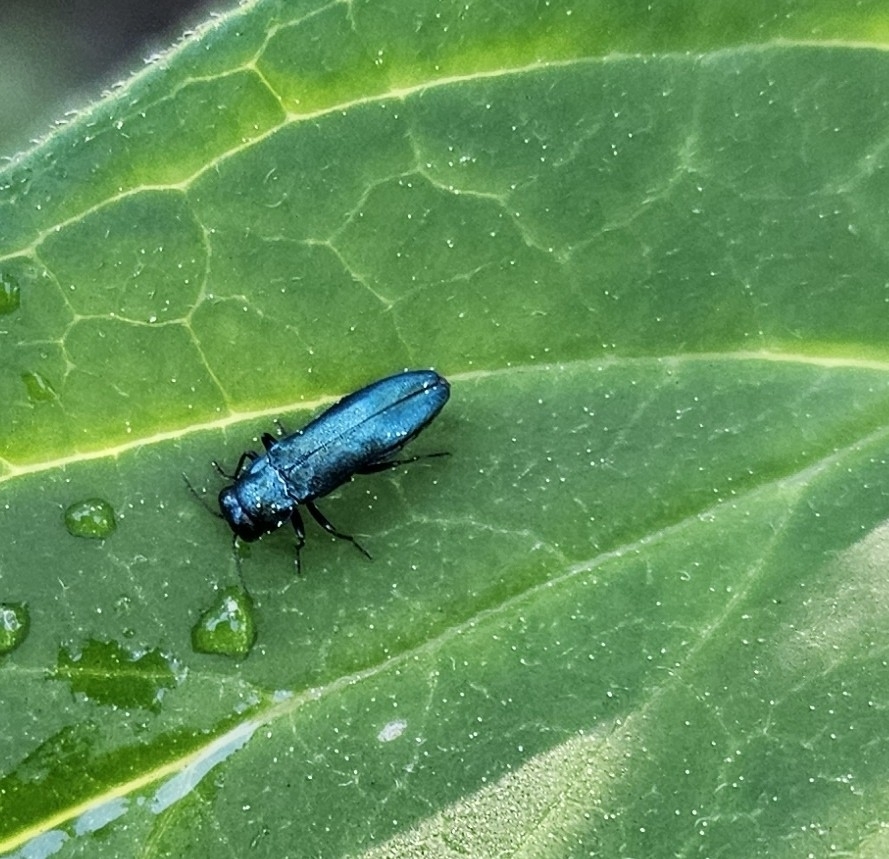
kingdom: Animalia
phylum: Arthropoda
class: Insecta
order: Coleoptera
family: Buprestidae
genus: Agrilus
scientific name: Agrilus cyanescens
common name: Bluish borer beetle
